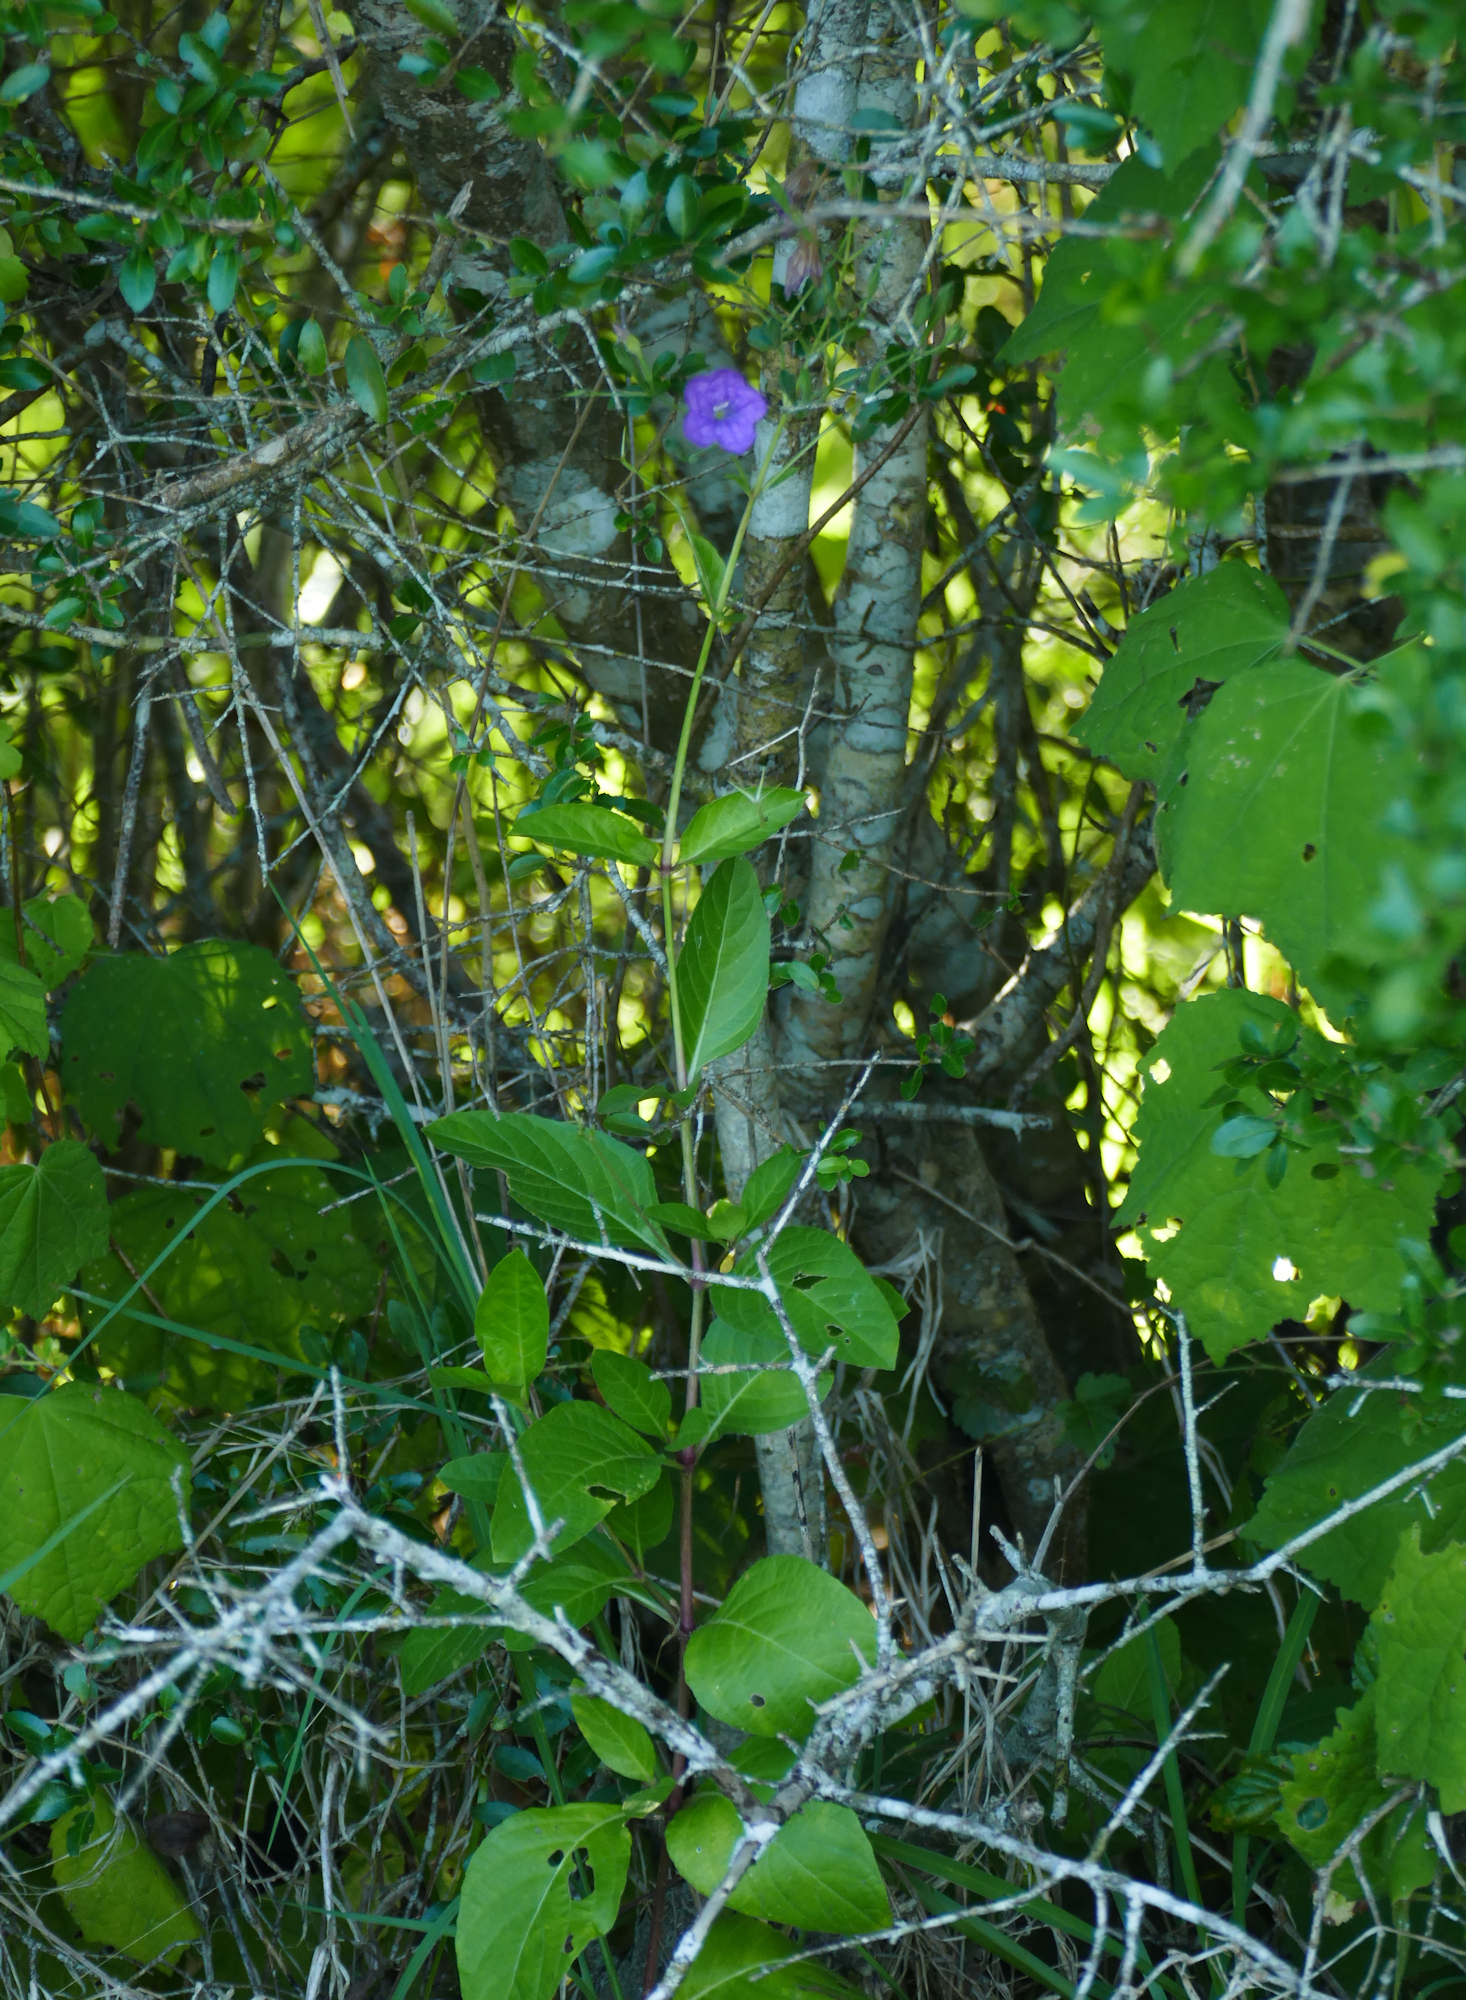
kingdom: Plantae
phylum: Tracheophyta
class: Magnoliopsida
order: Lamiales
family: Acanthaceae
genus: Ruellia
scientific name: Ruellia ciliatiflora
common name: Hairyflower wild petunia
